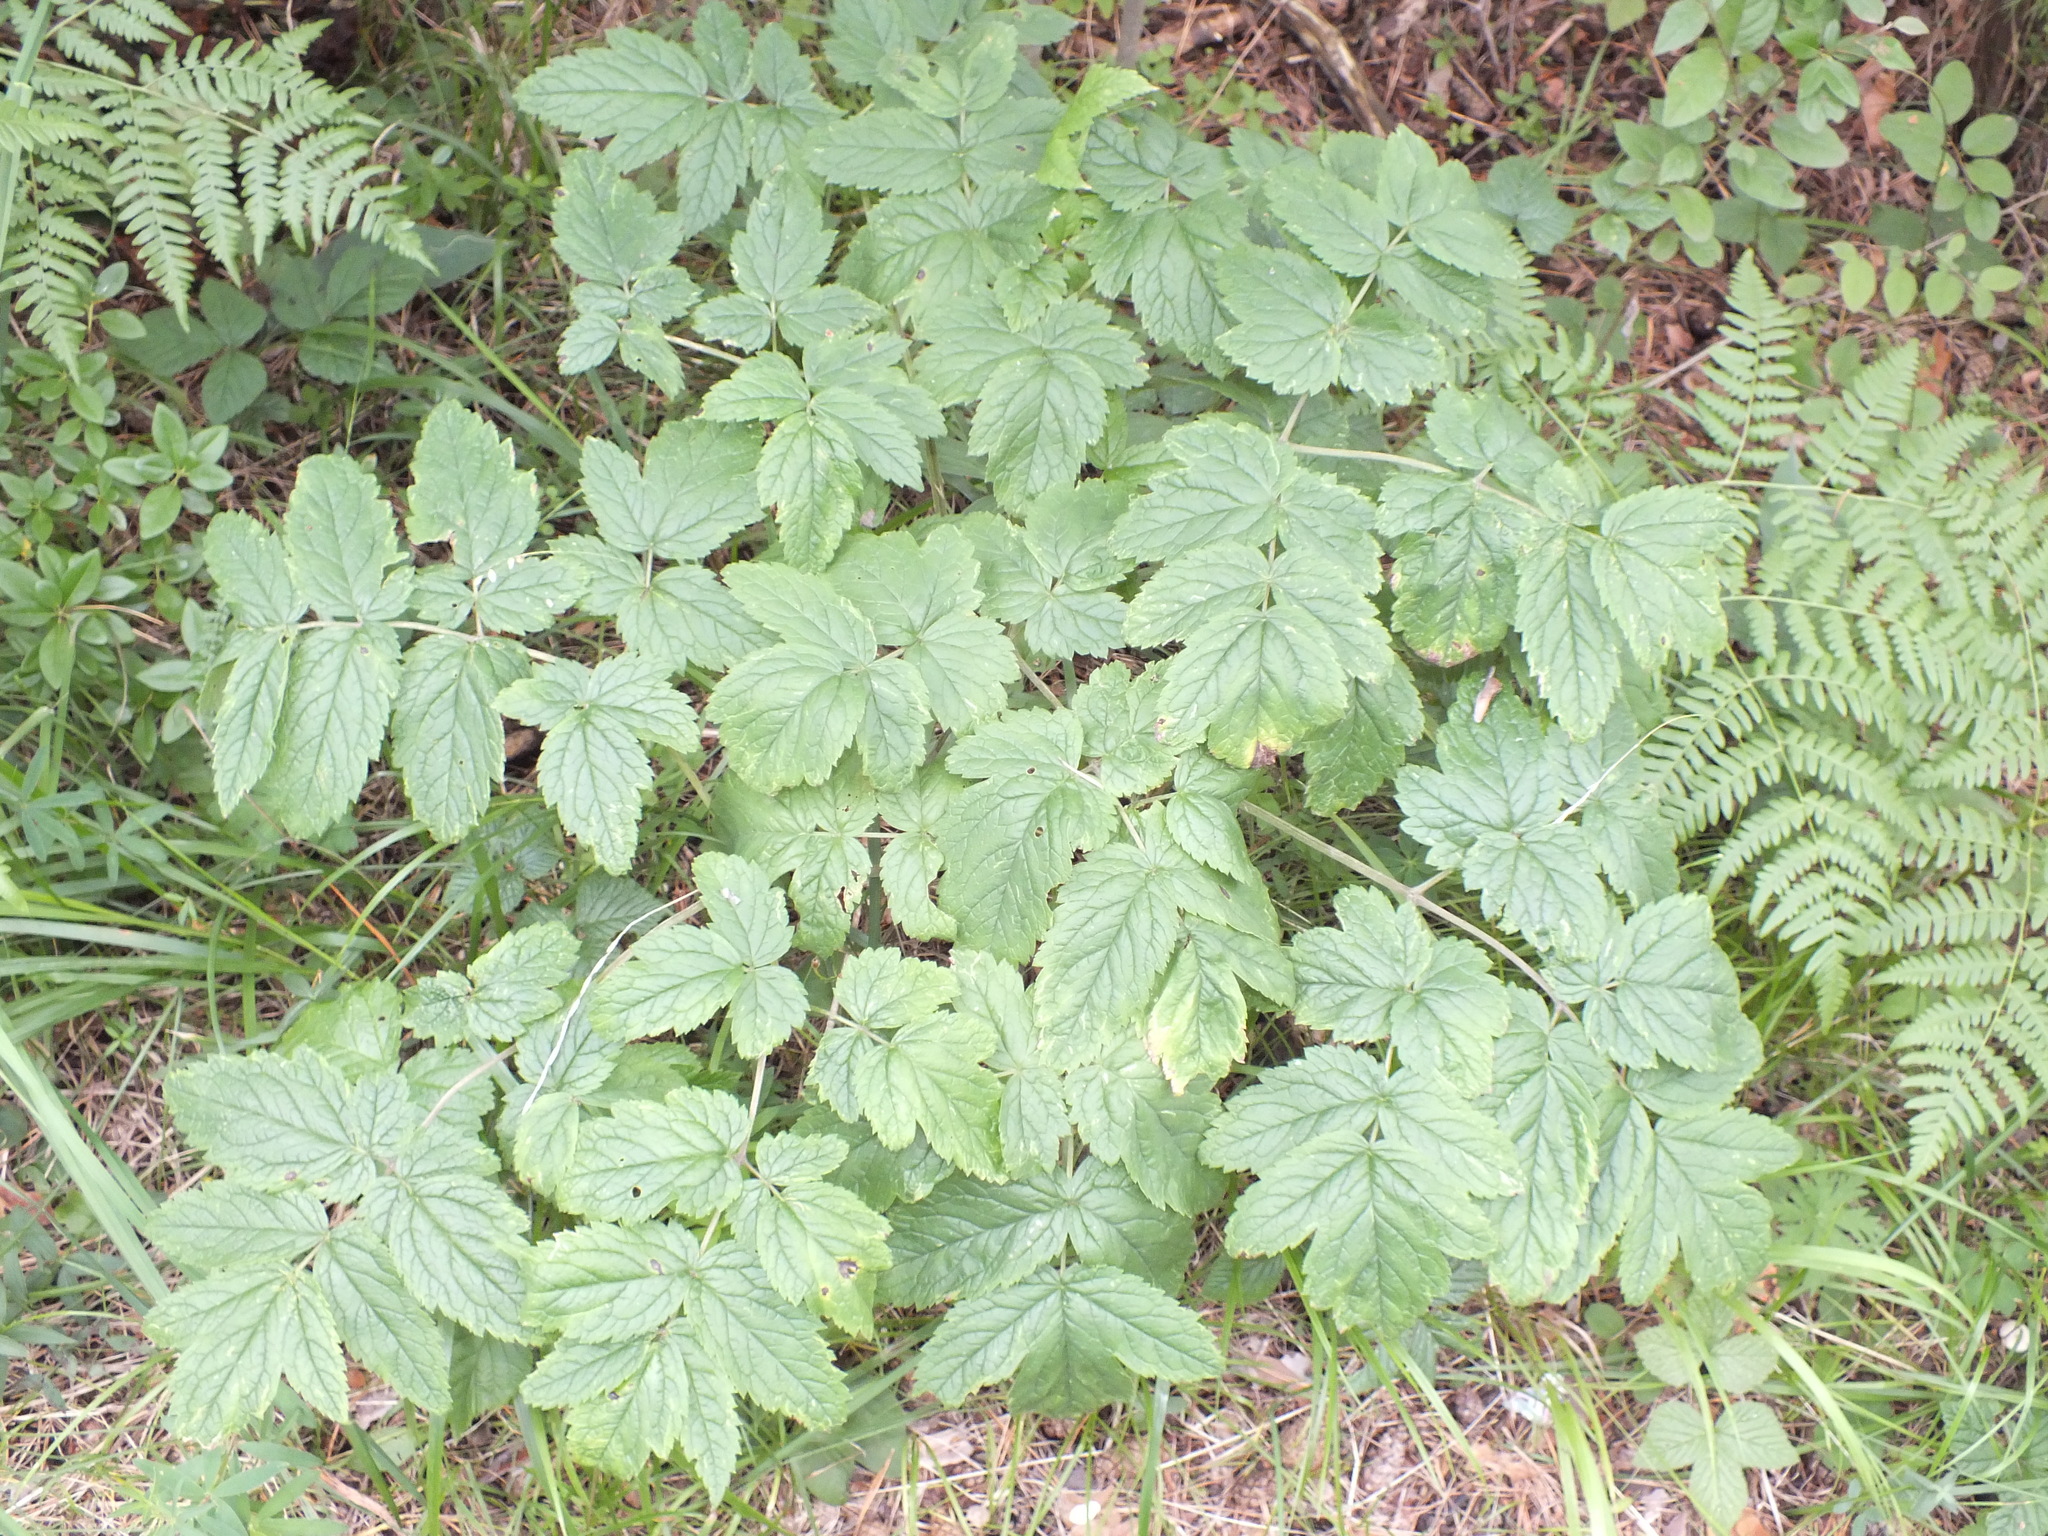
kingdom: Plantae
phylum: Tracheophyta
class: Magnoliopsida
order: Ranunculales
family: Ranunculaceae
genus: Actaea
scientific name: Actaea cimicifuga
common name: Chinese cimicifuga
